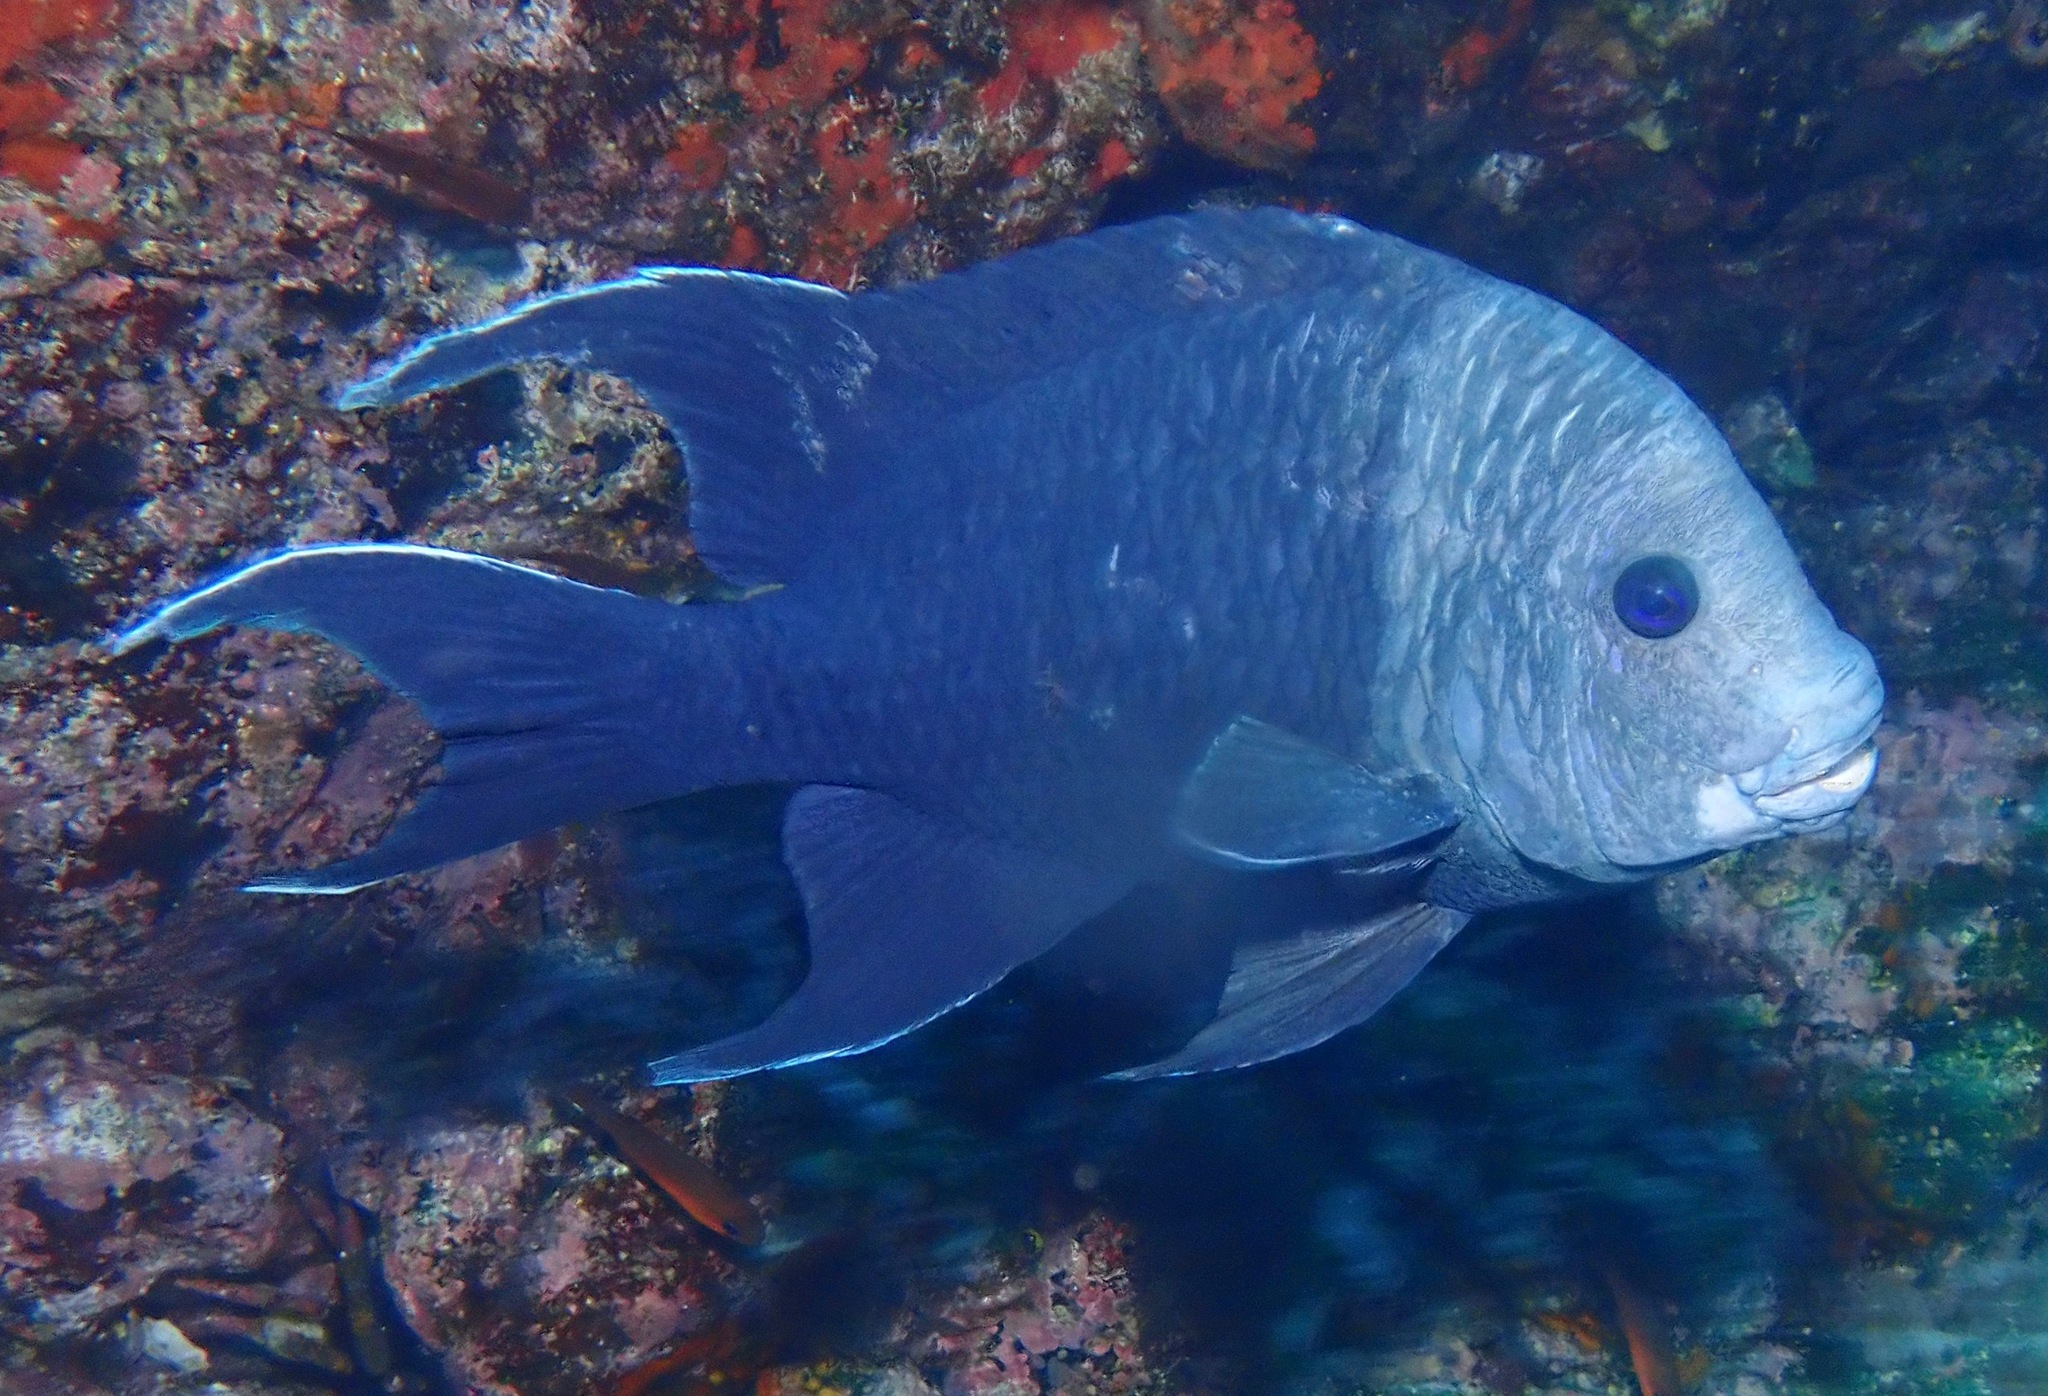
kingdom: Animalia
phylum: Chordata
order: Perciformes
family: Pomacentridae
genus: Microspathodon
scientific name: Microspathodon dorsalis
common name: Giant damselfish
